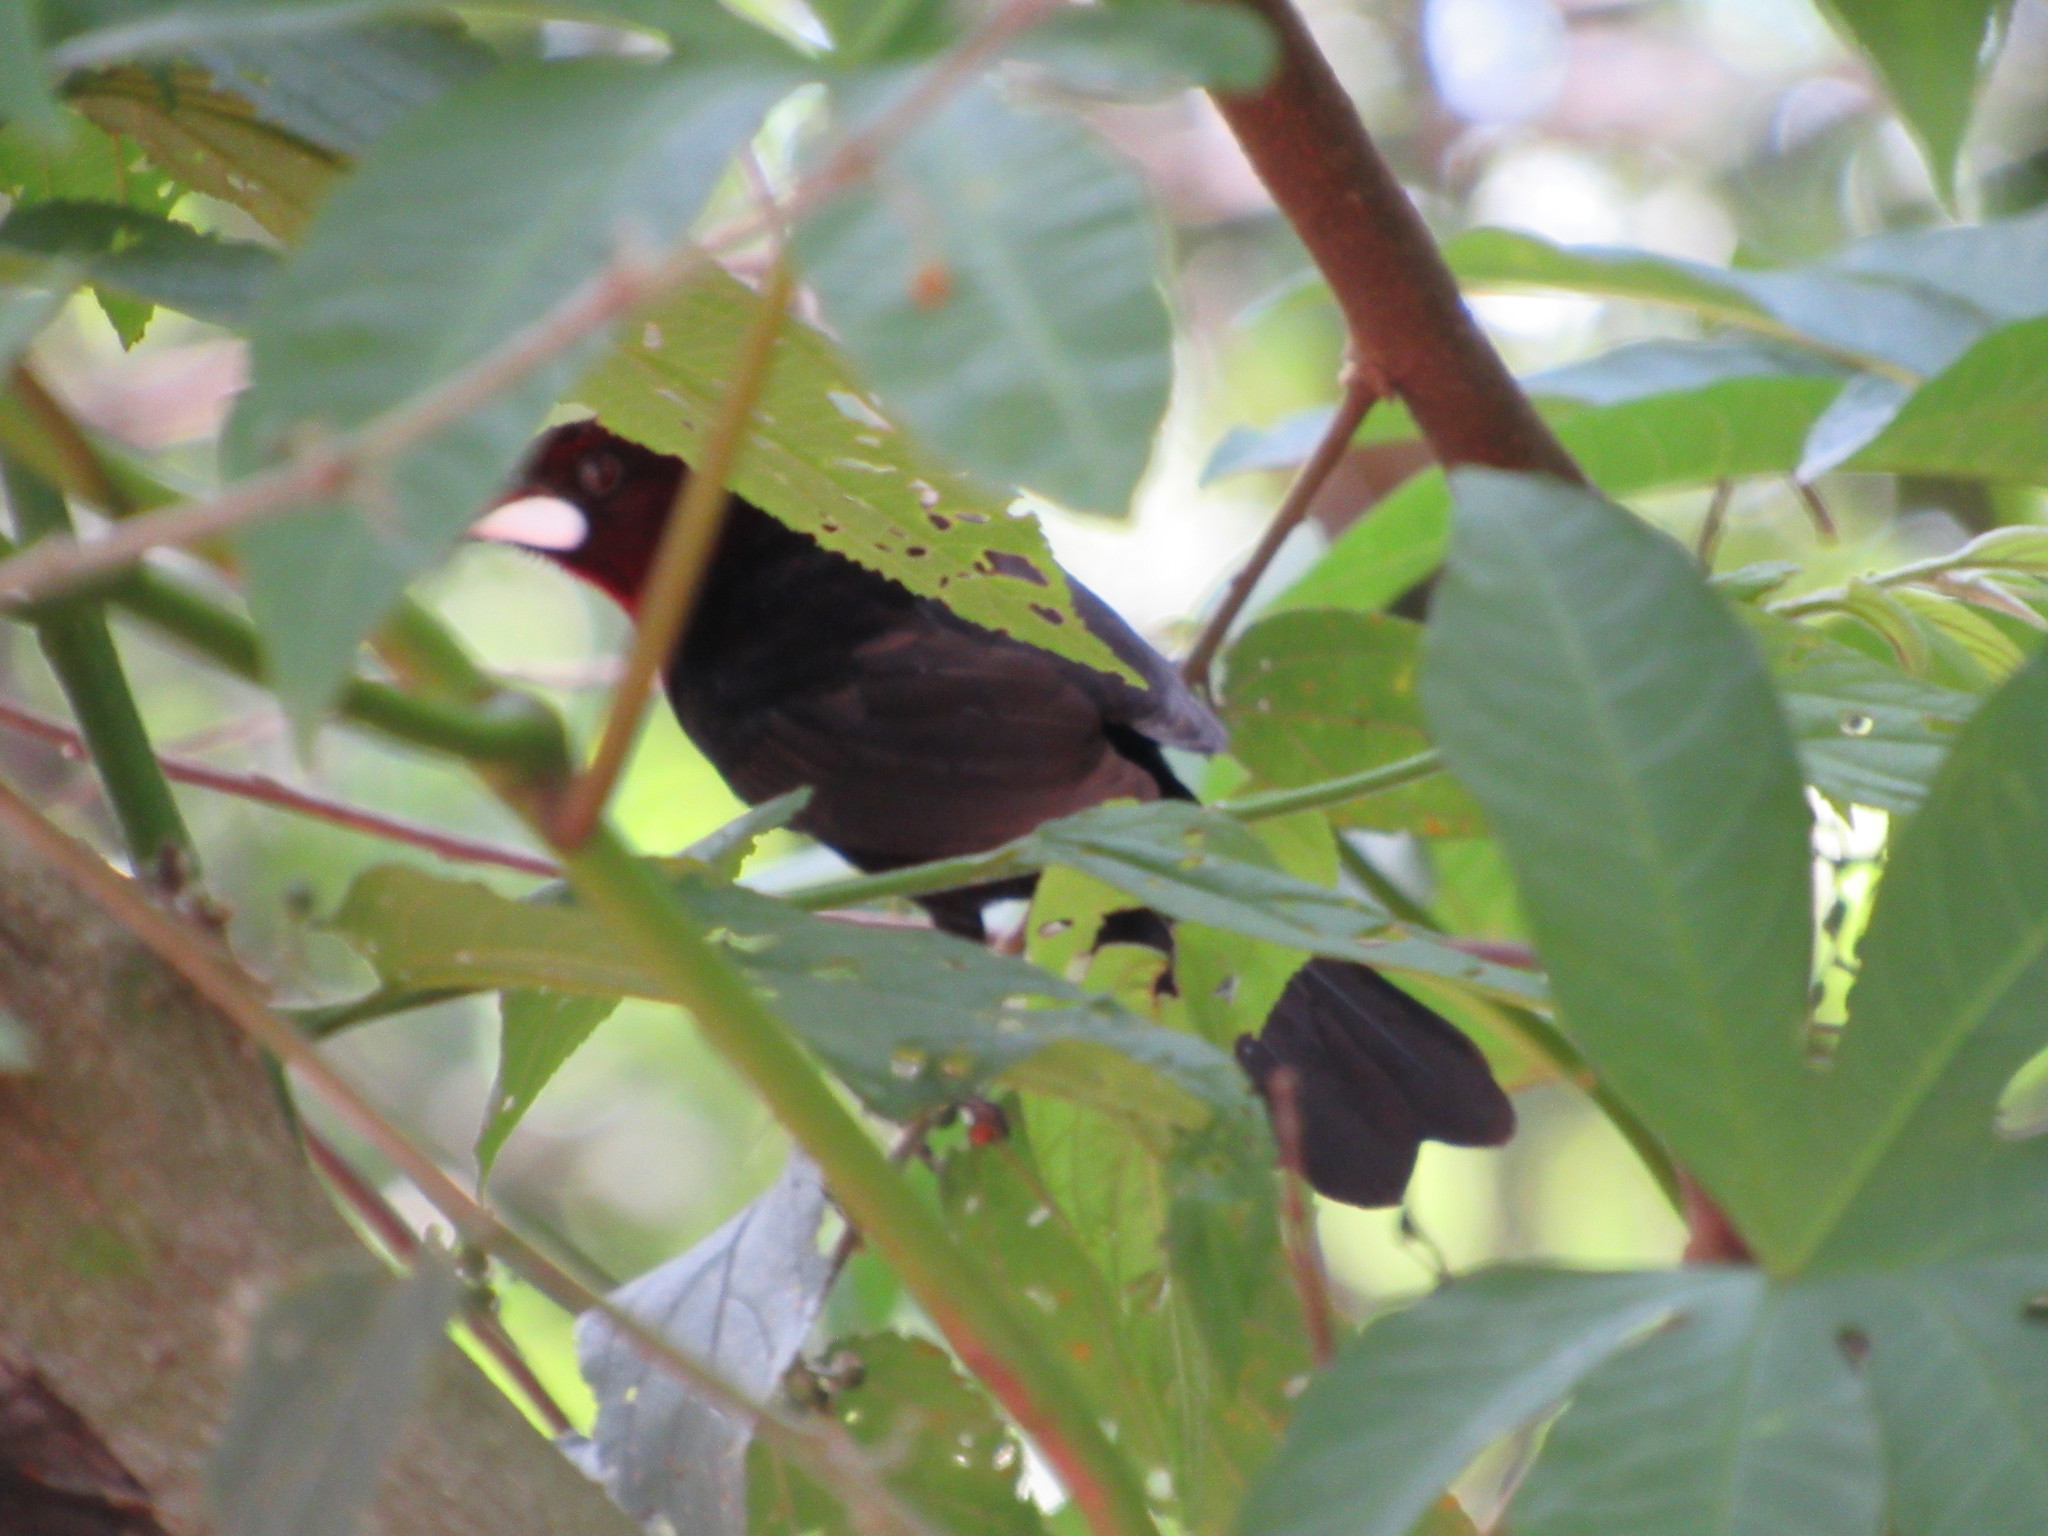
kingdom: Animalia
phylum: Chordata
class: Aves
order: Passeriformes
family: Thraupidae
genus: Ramphocelus
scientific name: Ramphocelus carbo
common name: Silver-beaked tanager
